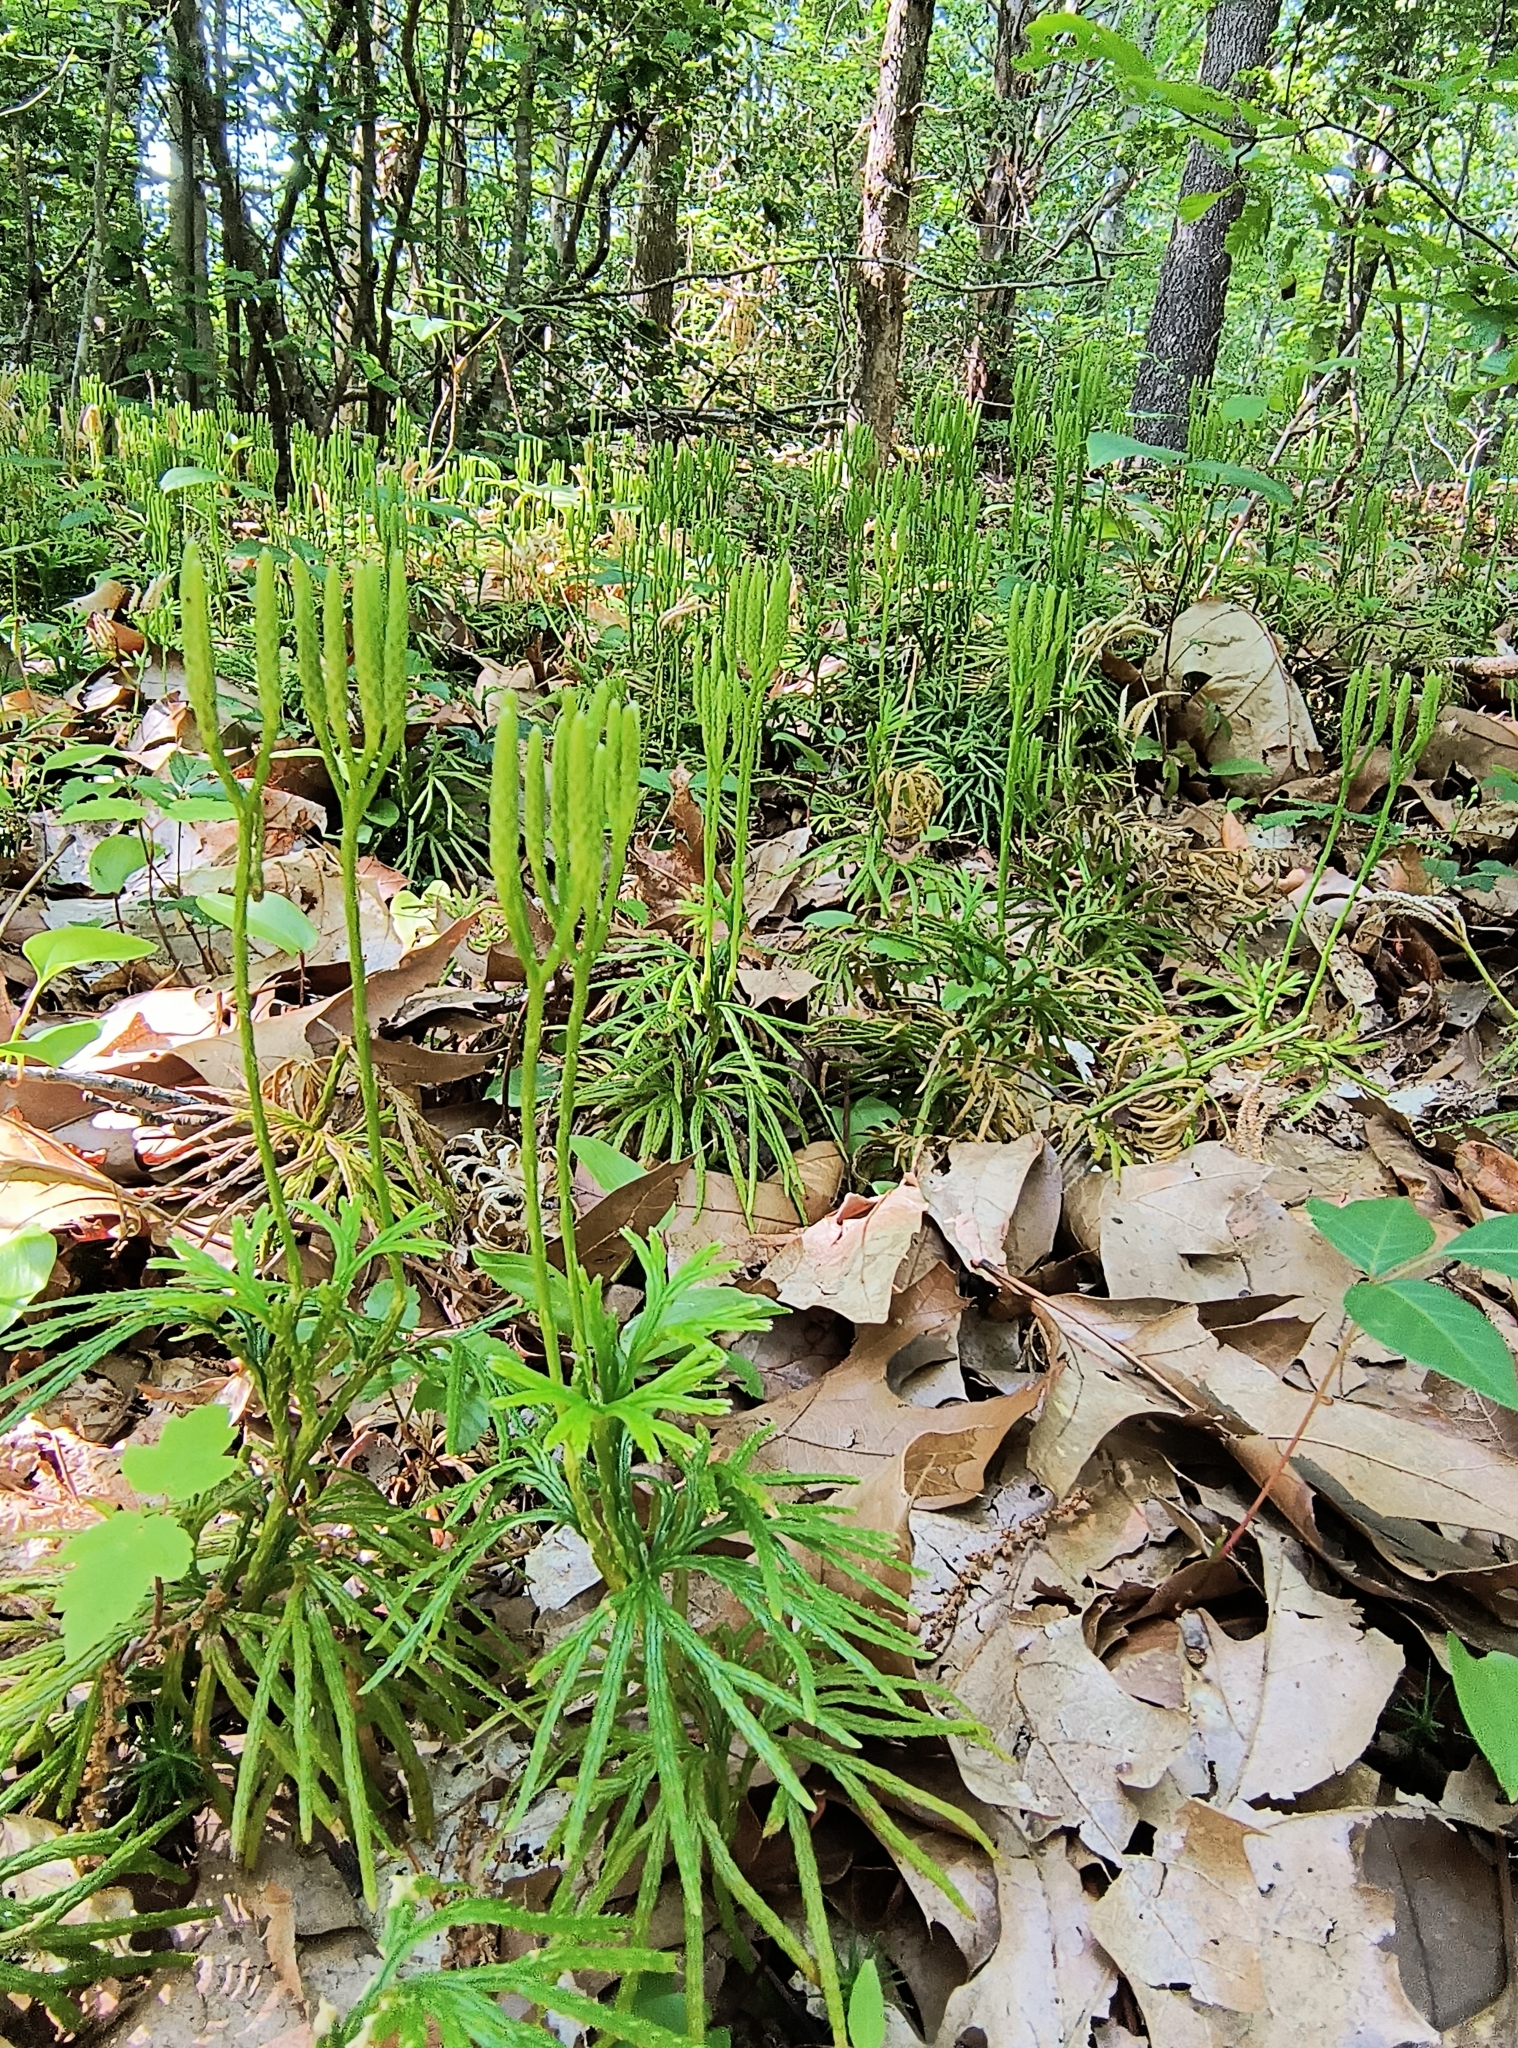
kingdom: Plantae
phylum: Tracheophyta
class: Lycopodiopsida
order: Lycopodiales
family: Lycopodiaceae
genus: Diphasiastrum
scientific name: Diphasiastrum digitatum
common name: Southern running-pine
